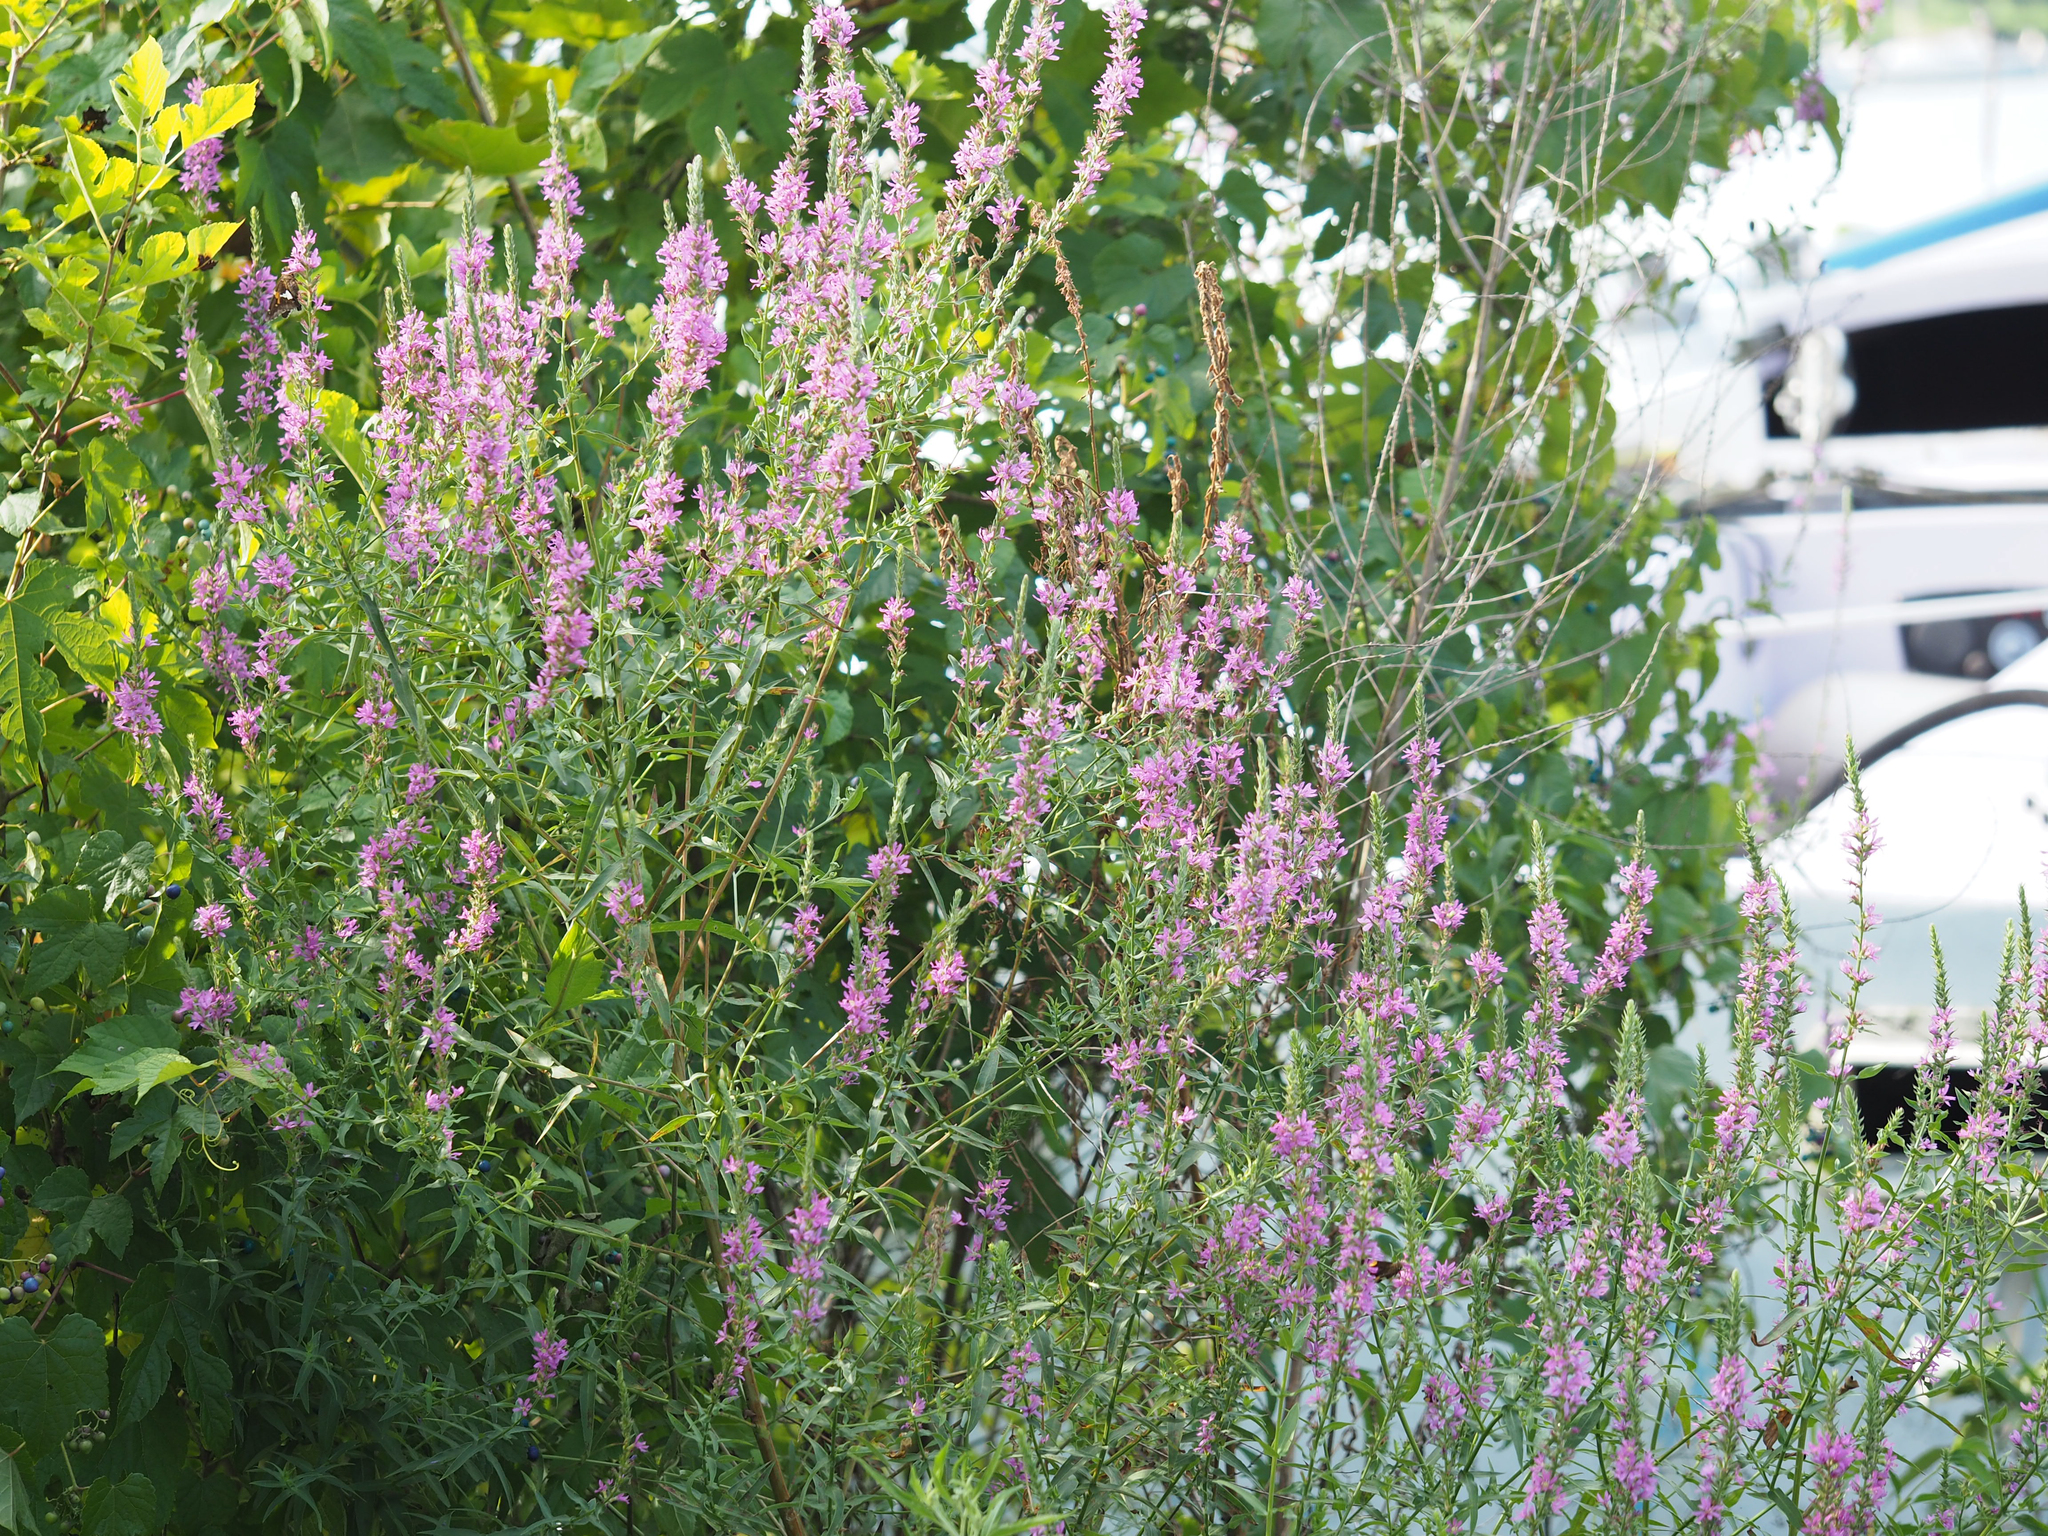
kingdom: Plantae
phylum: Tracheophyta
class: Magnoliopsida
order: Myrtales
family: Lythraceae
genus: Lythrum
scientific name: Lythrum salicaria
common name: Purple loosestrife
